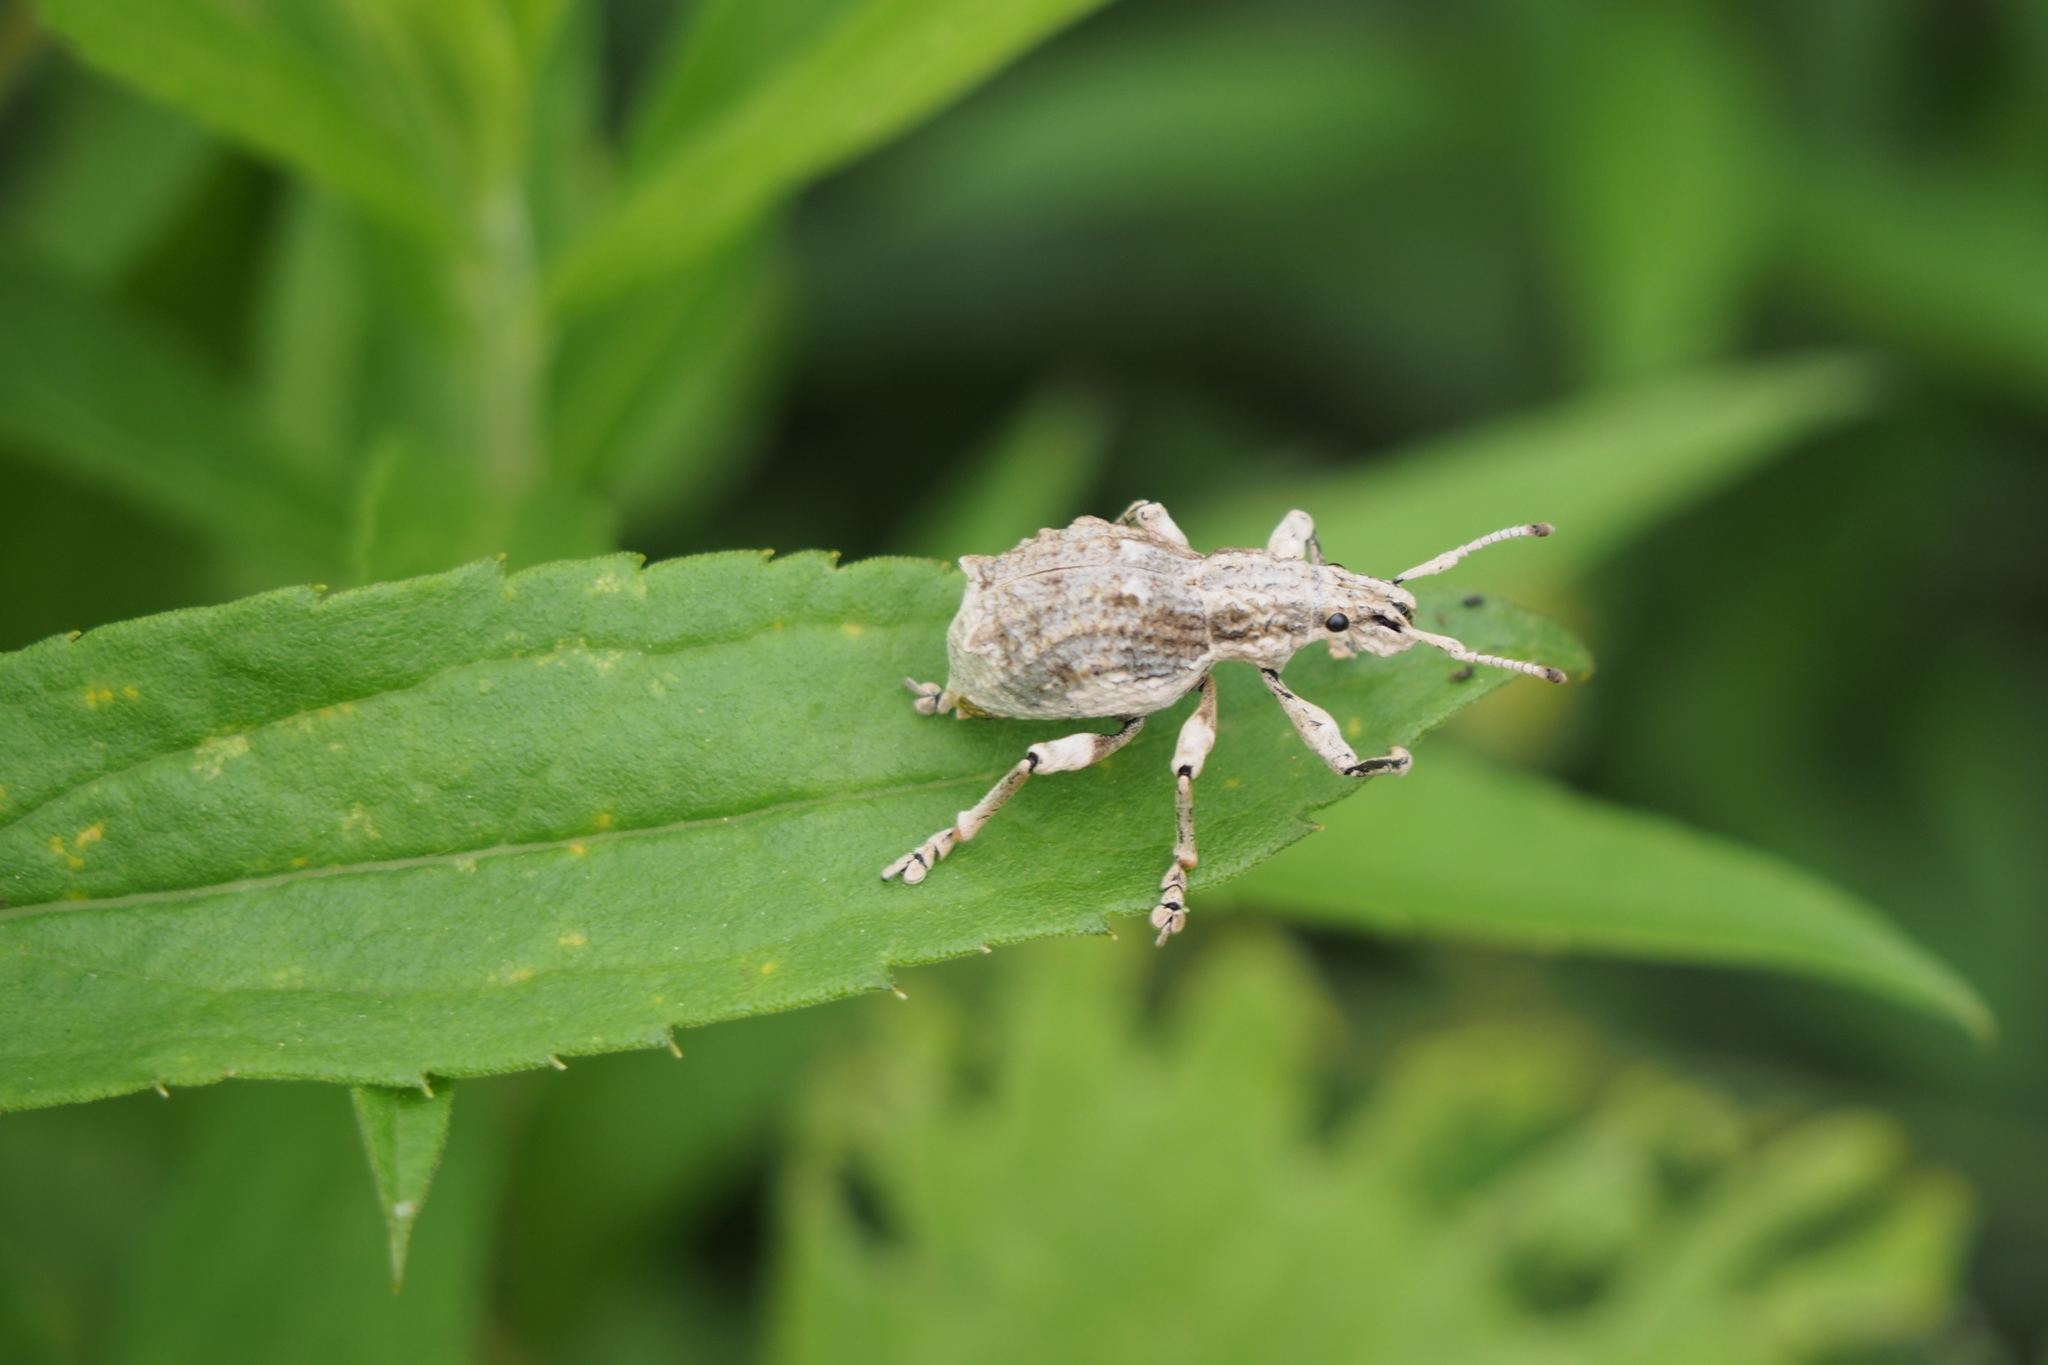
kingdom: Animalia
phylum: Arthropoda
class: Insecta
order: Coleoptera
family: Curculionidae
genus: Episomus
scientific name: Episomus turritus
